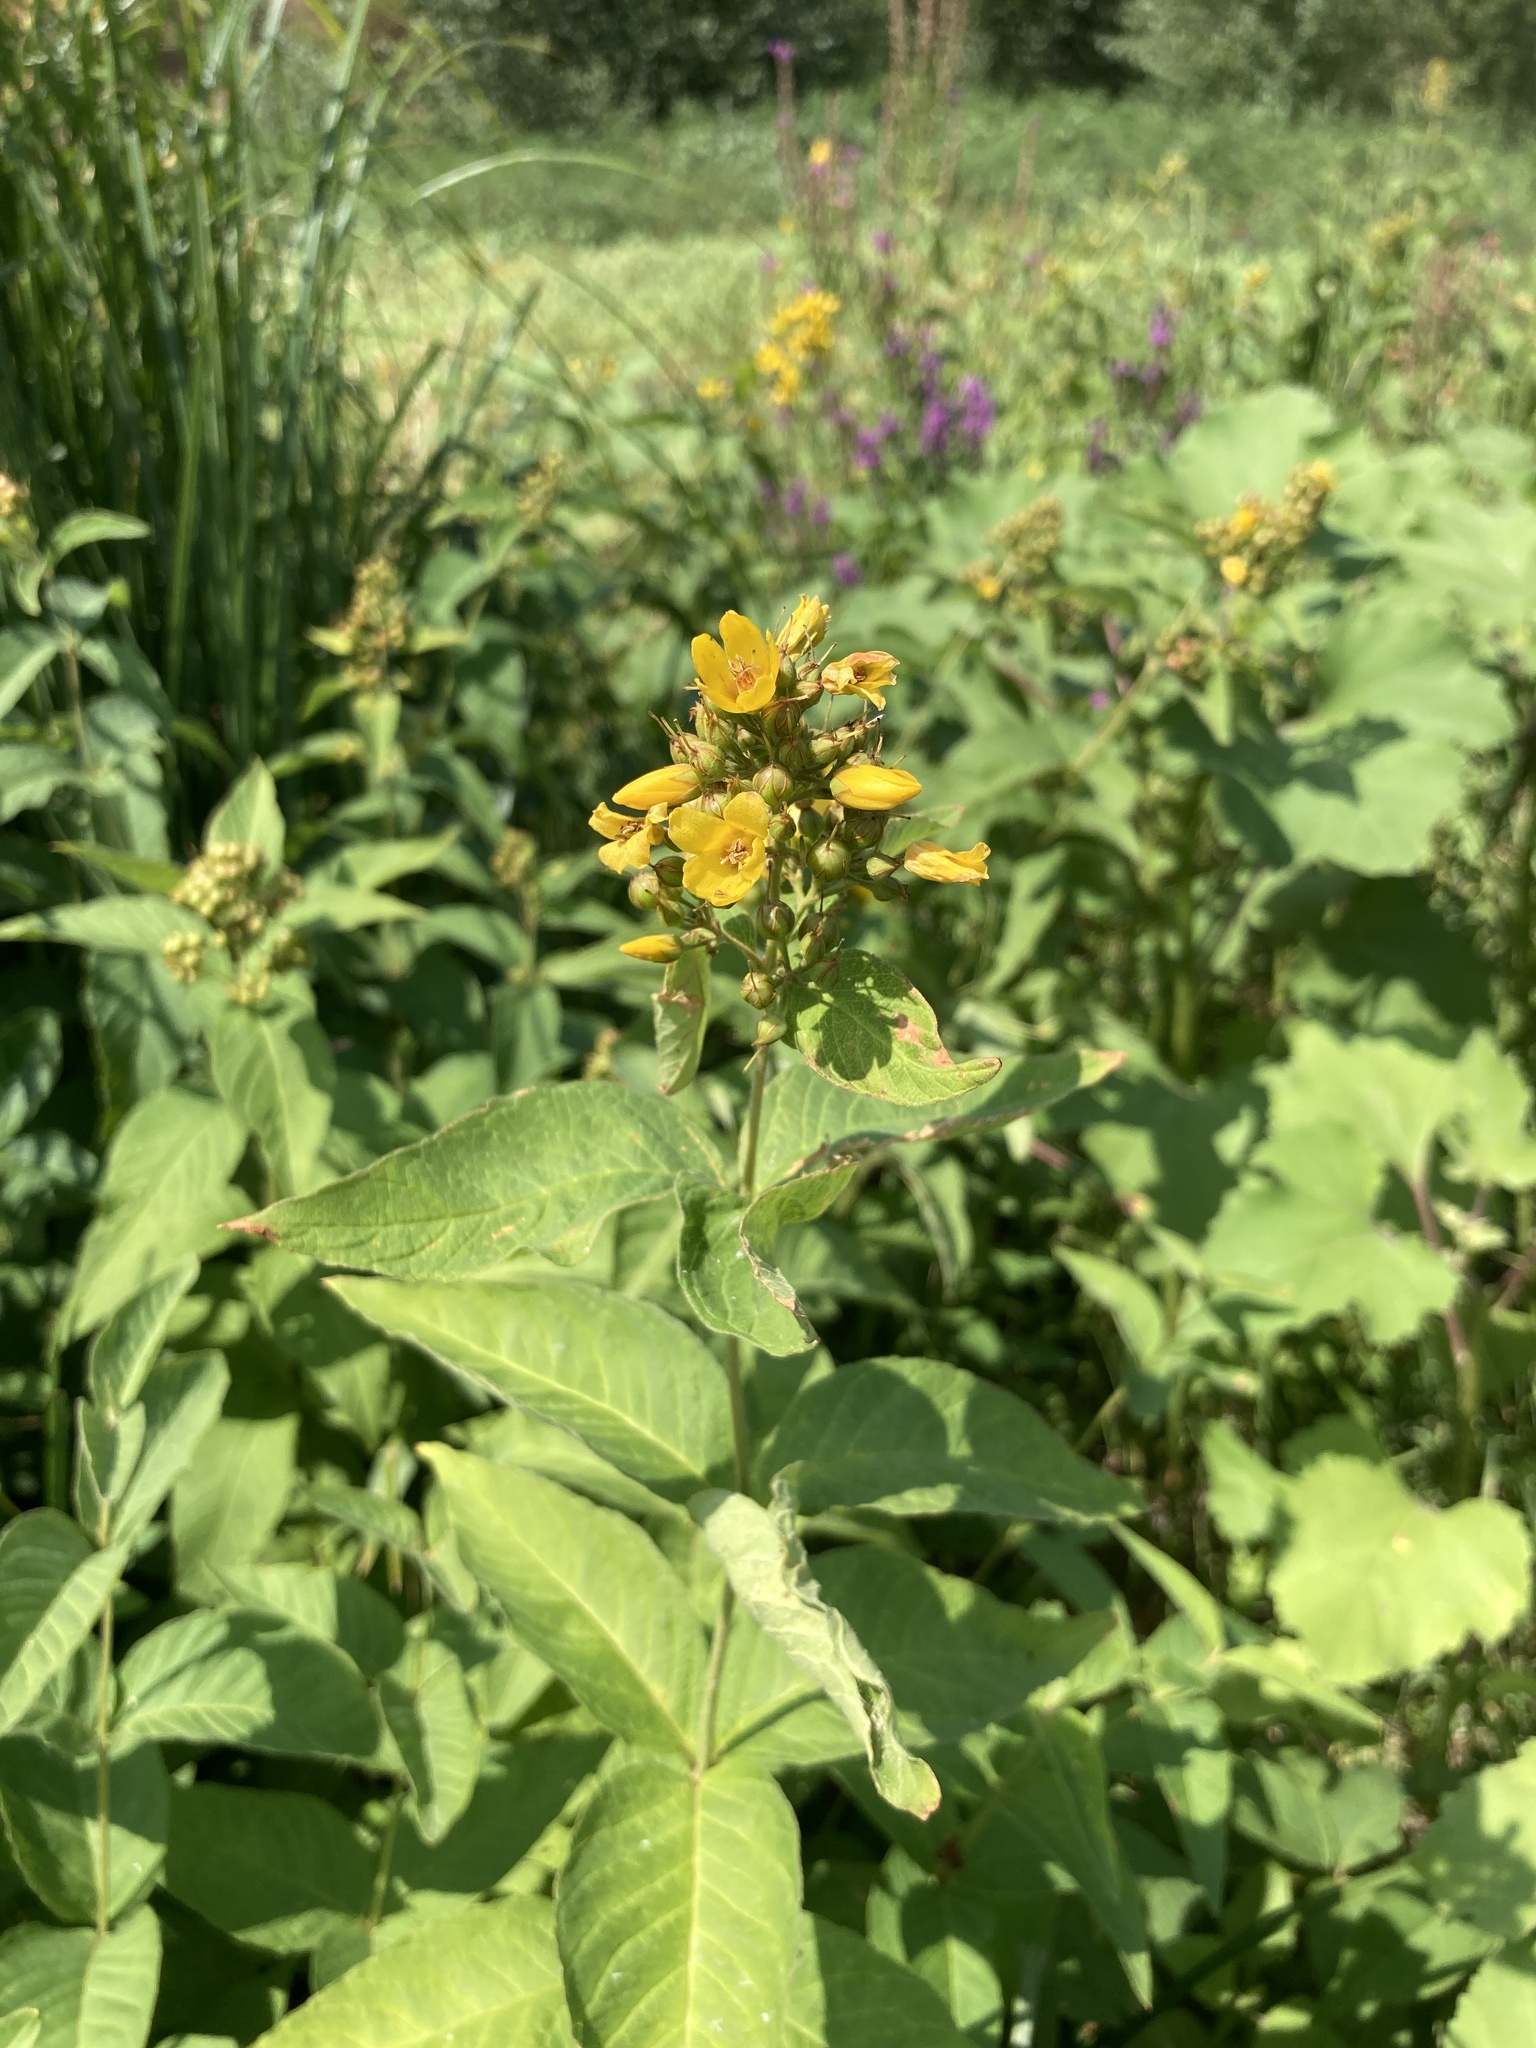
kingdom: Plantae
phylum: Tracheophyta
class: Magnoliopsida
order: Ericales
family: Primulaceae
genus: Lysimachia
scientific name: Lysimachia vulgaris
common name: Yellow loosestrife
